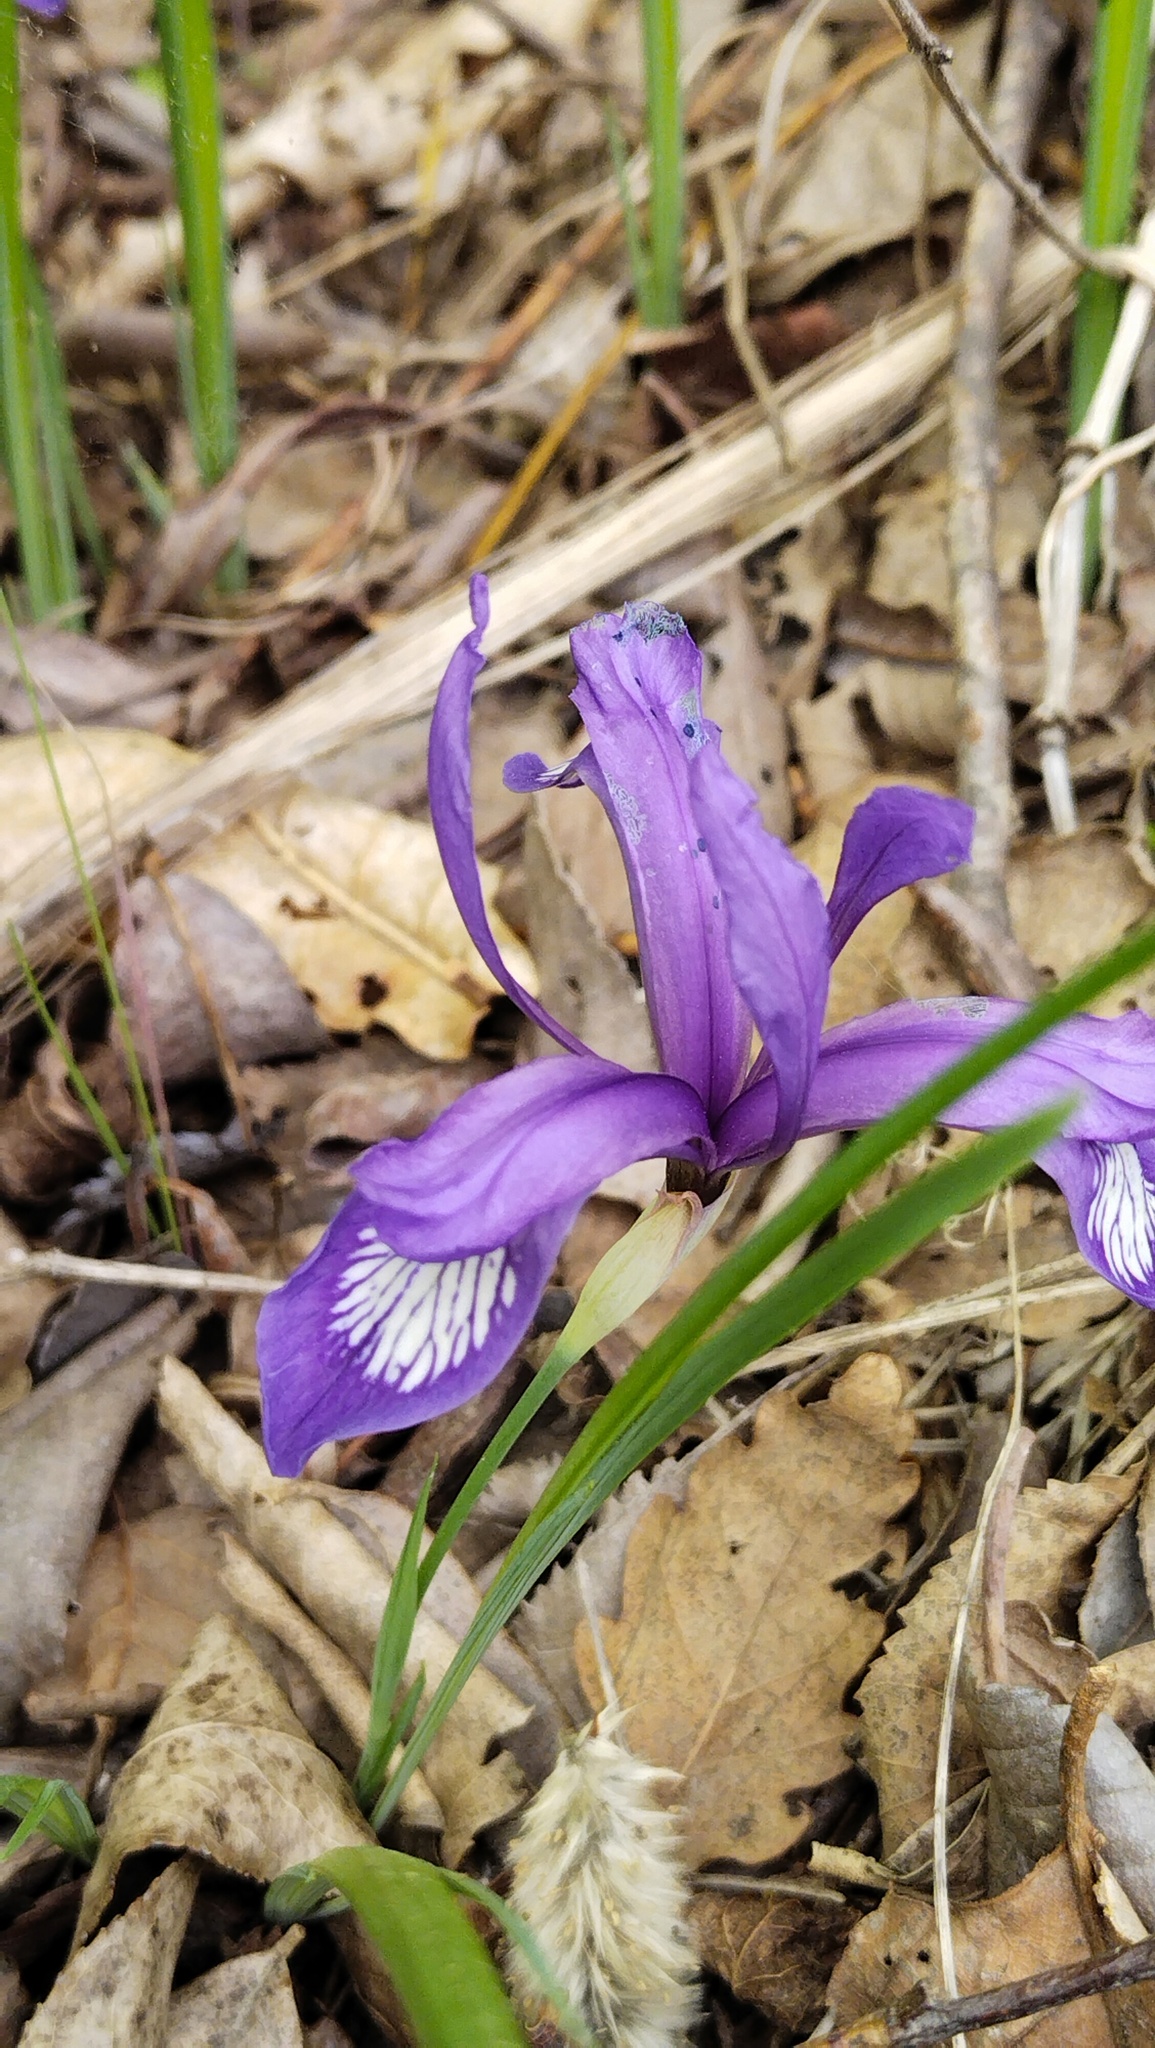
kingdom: Plantae
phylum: Tracheophyta
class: Liliopsida
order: Asparagales
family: Iridaceae
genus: Iris
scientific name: Iris uniflora
